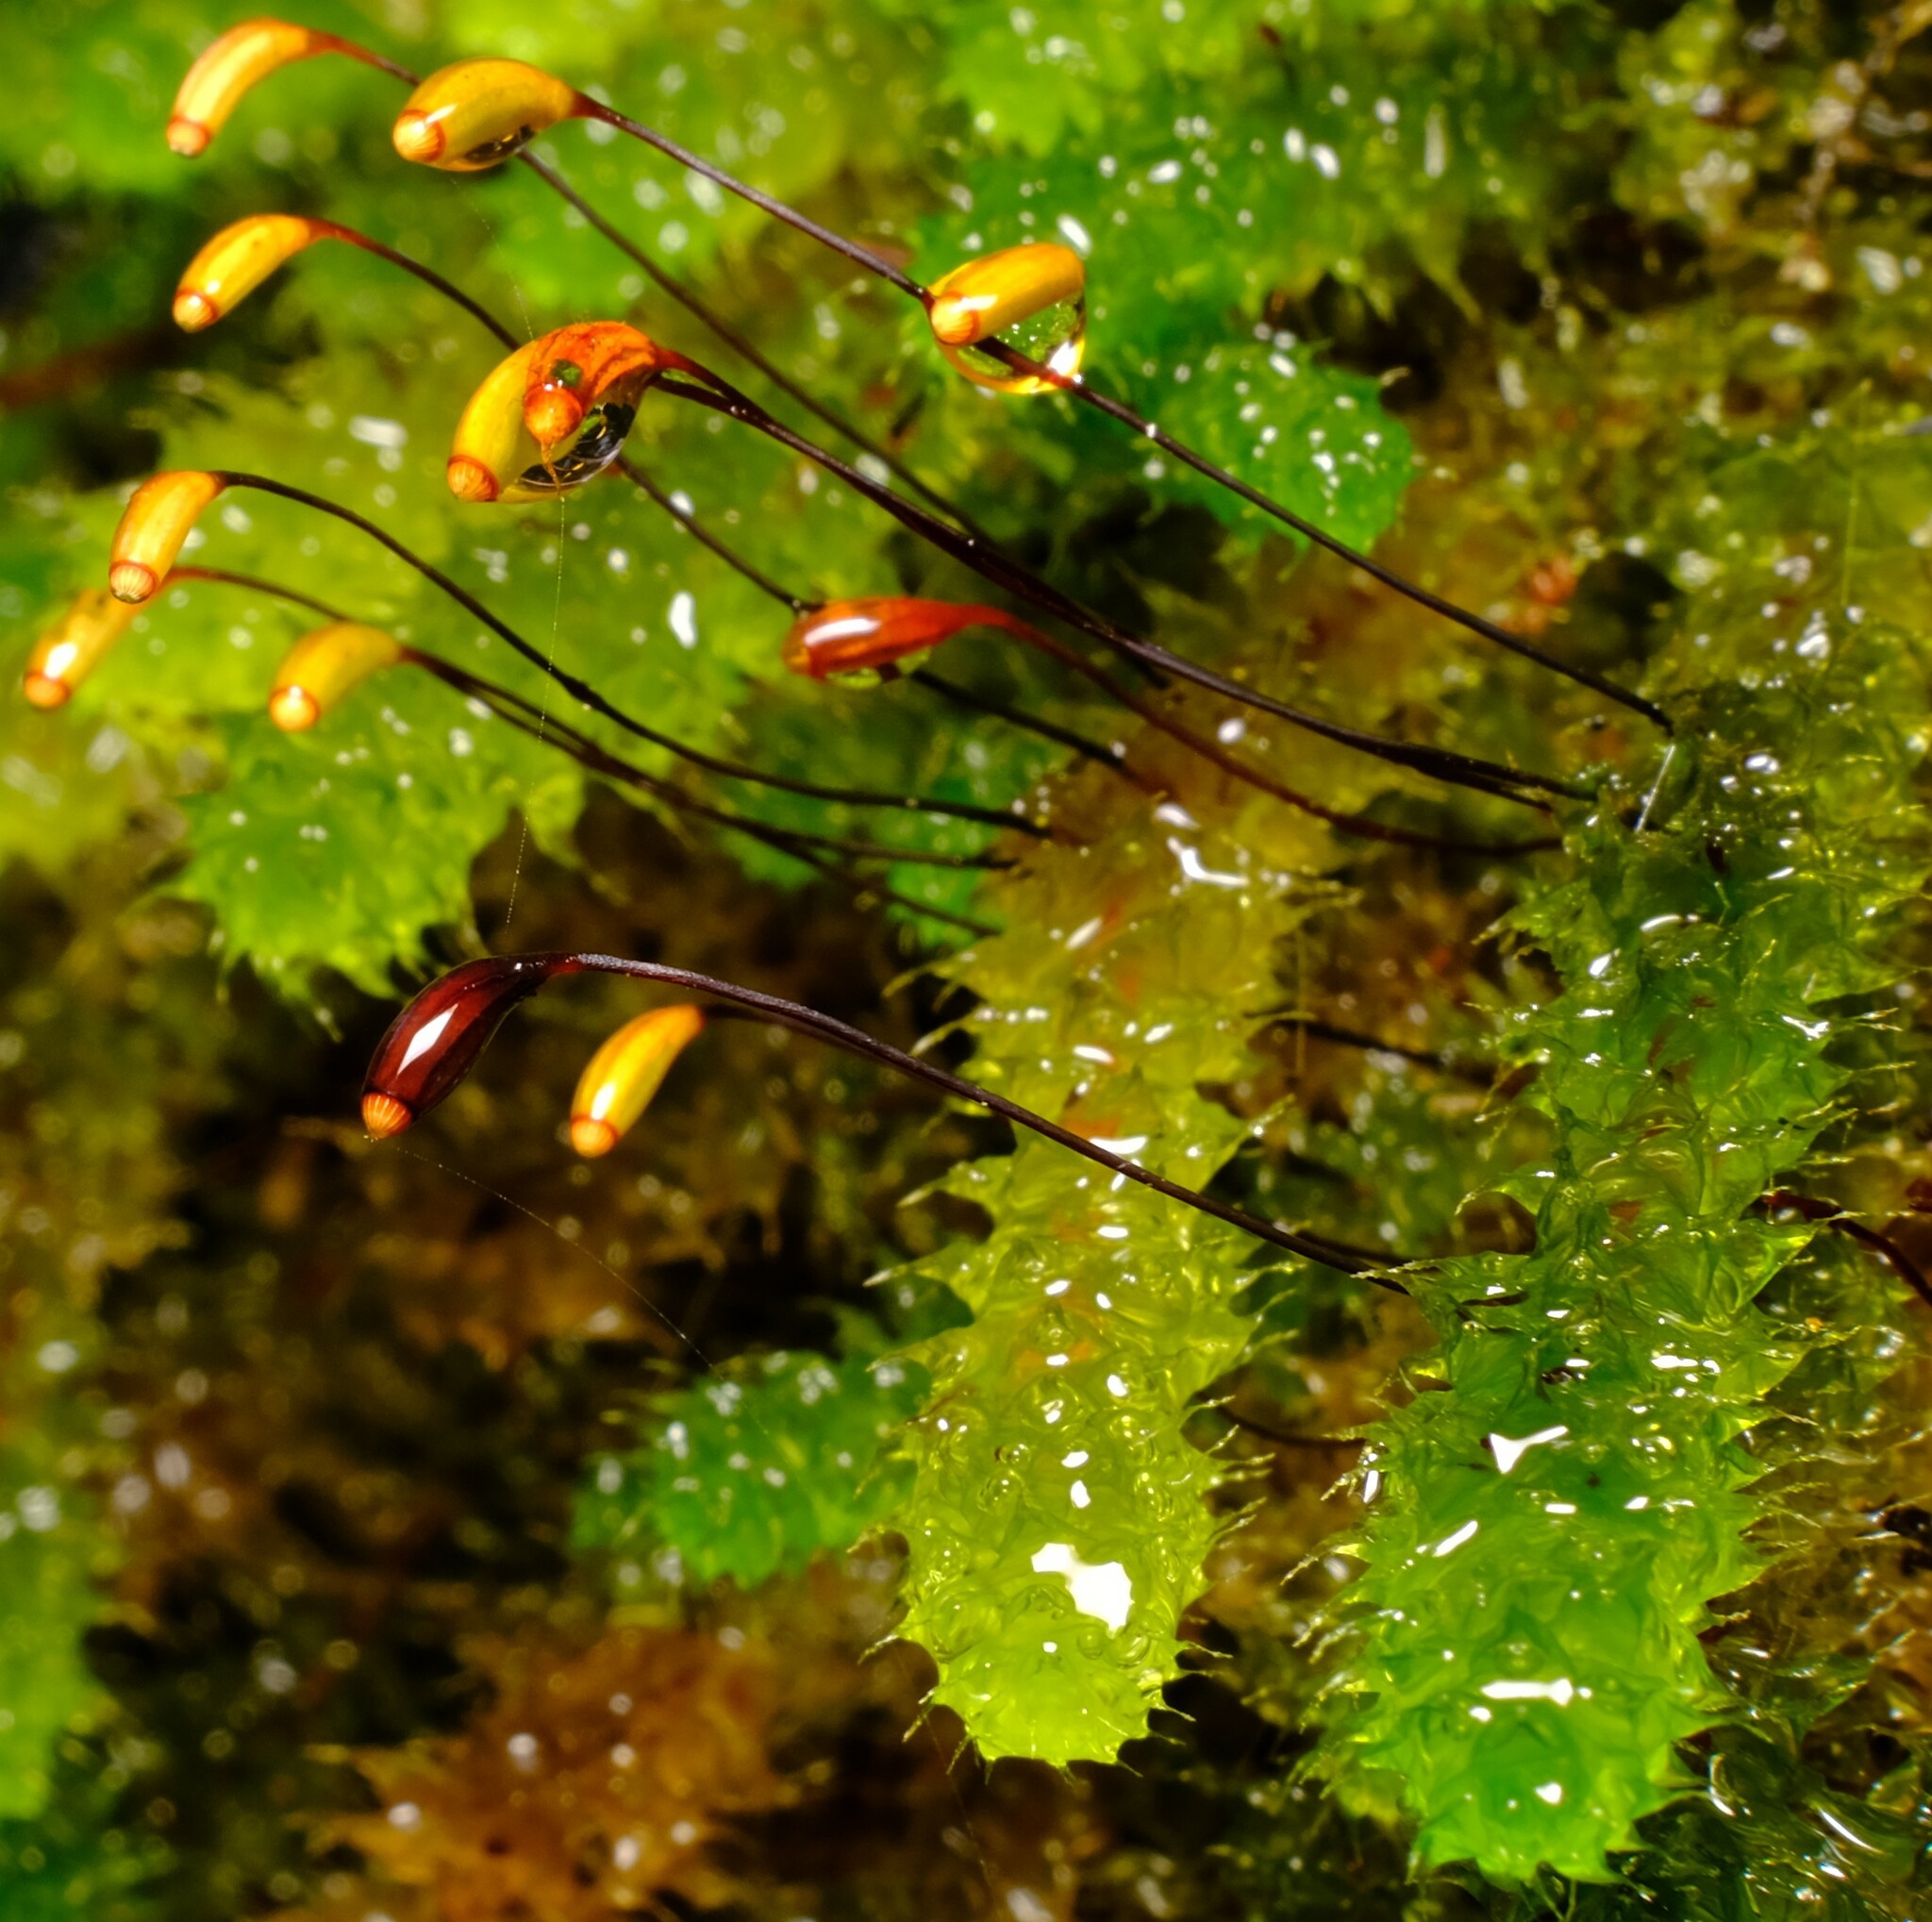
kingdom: Plantae
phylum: Bryophyta
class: Bryopsida
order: Ptychomniales
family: Ptychomniaceae
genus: Ptychomnion
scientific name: Ptychomnion aciculare
